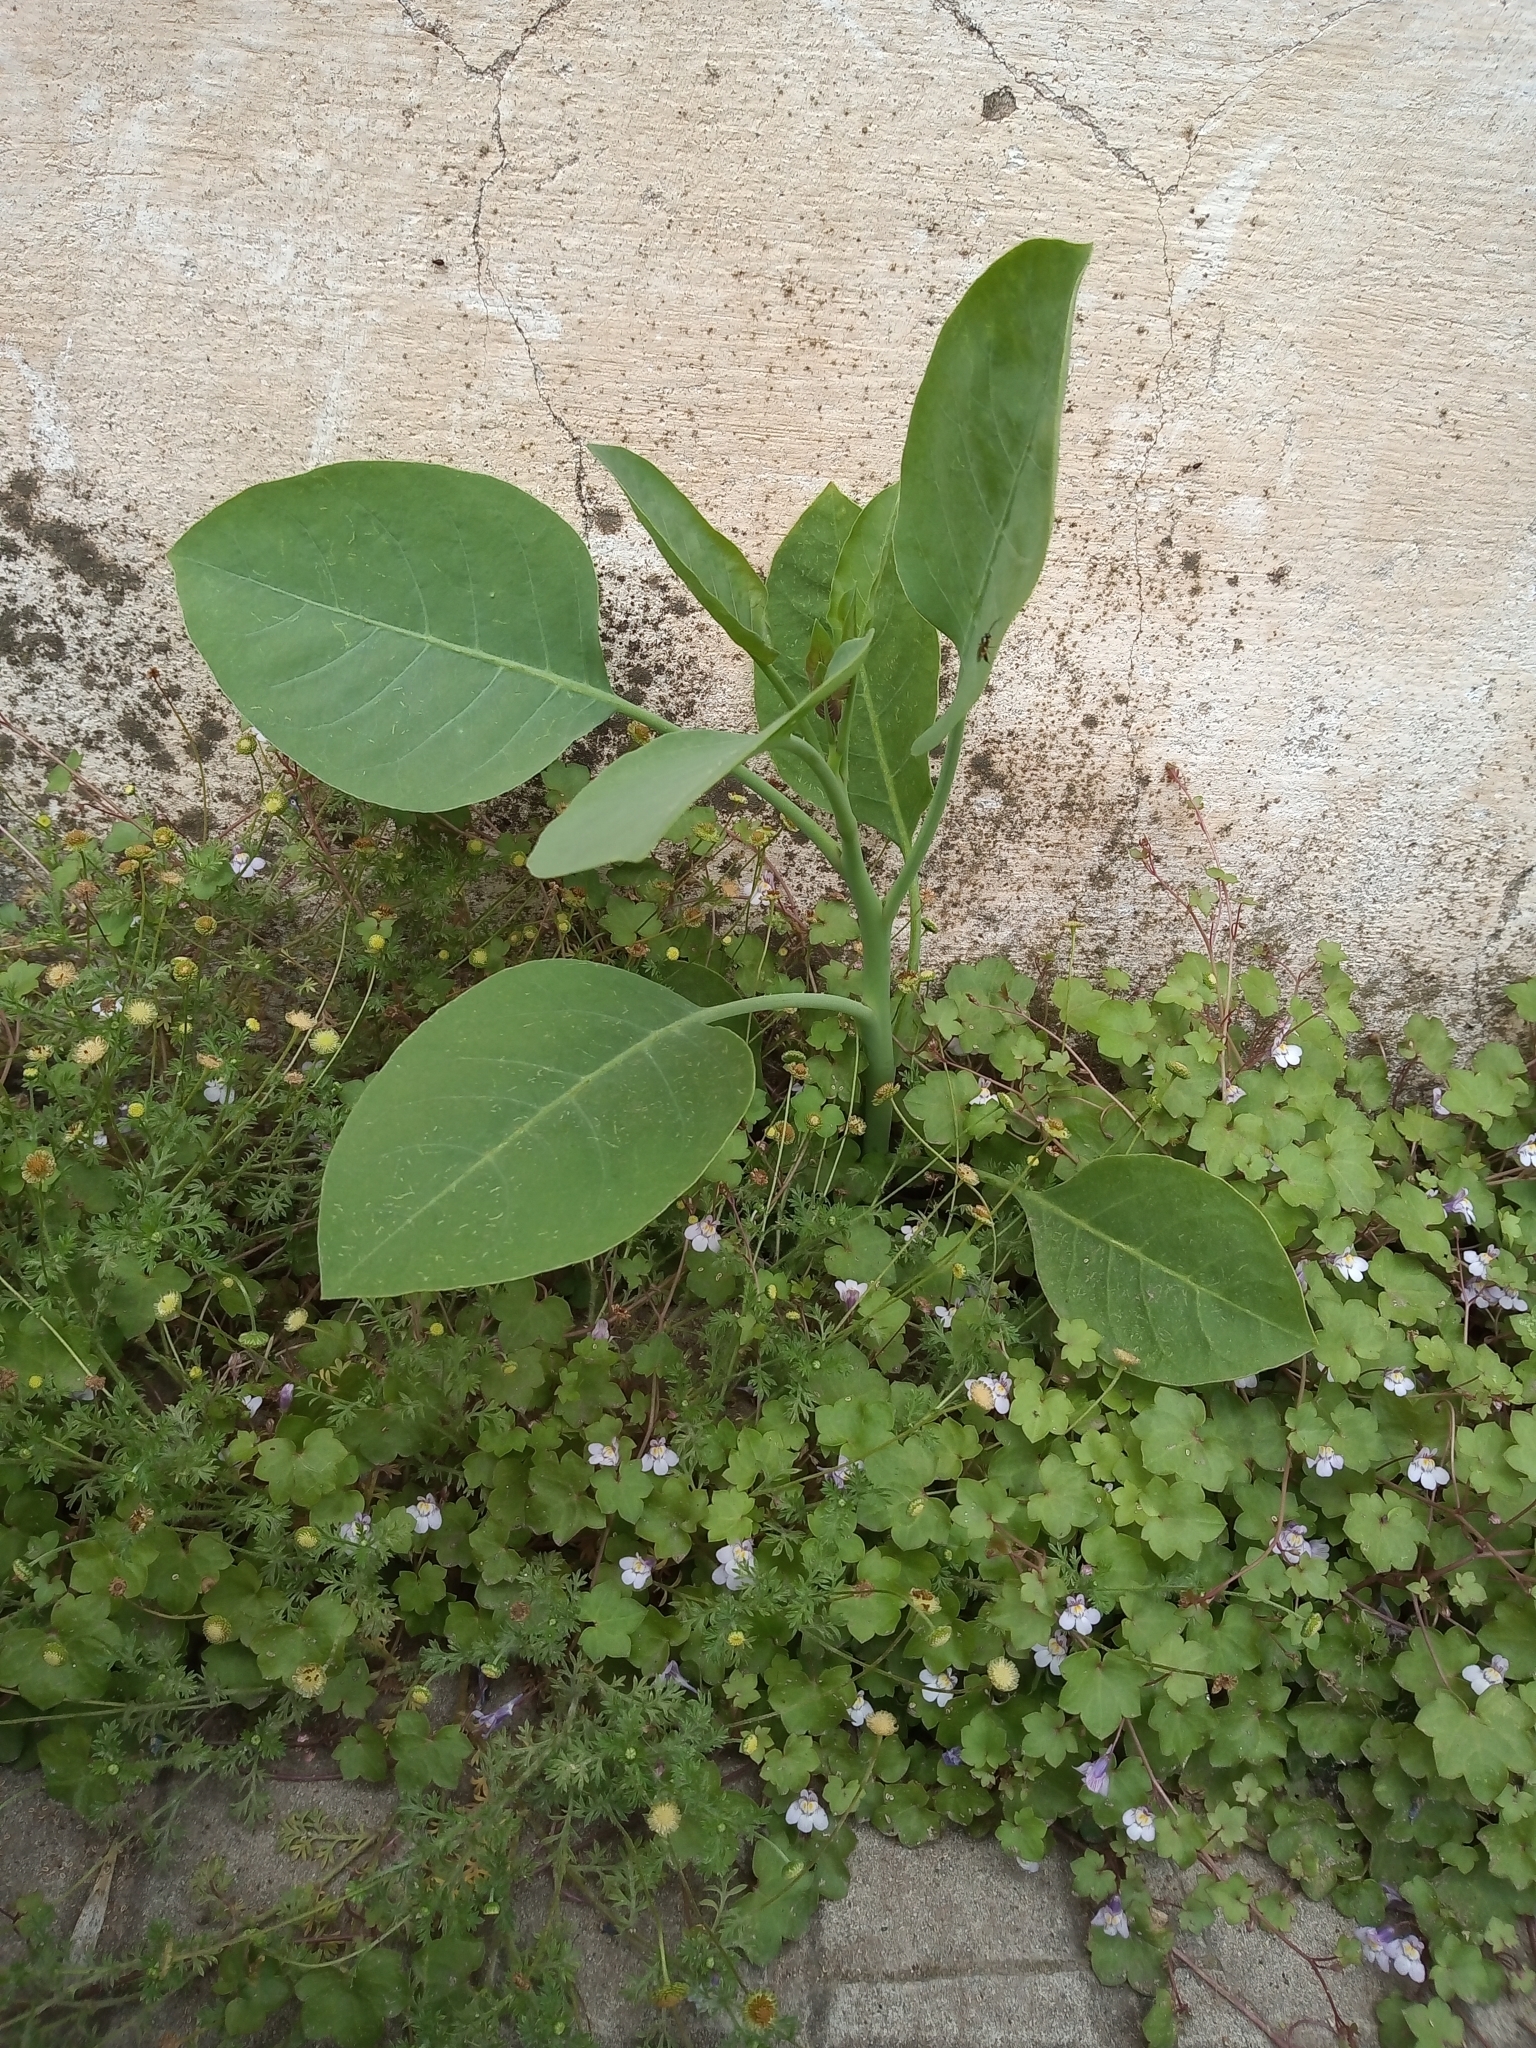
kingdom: Plantae
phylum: Tracheophyta
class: Magnoliopsida
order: Solanales
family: Solanaceae
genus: Nicotiana
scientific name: Nicotiana glauca
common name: Tree tobacco
